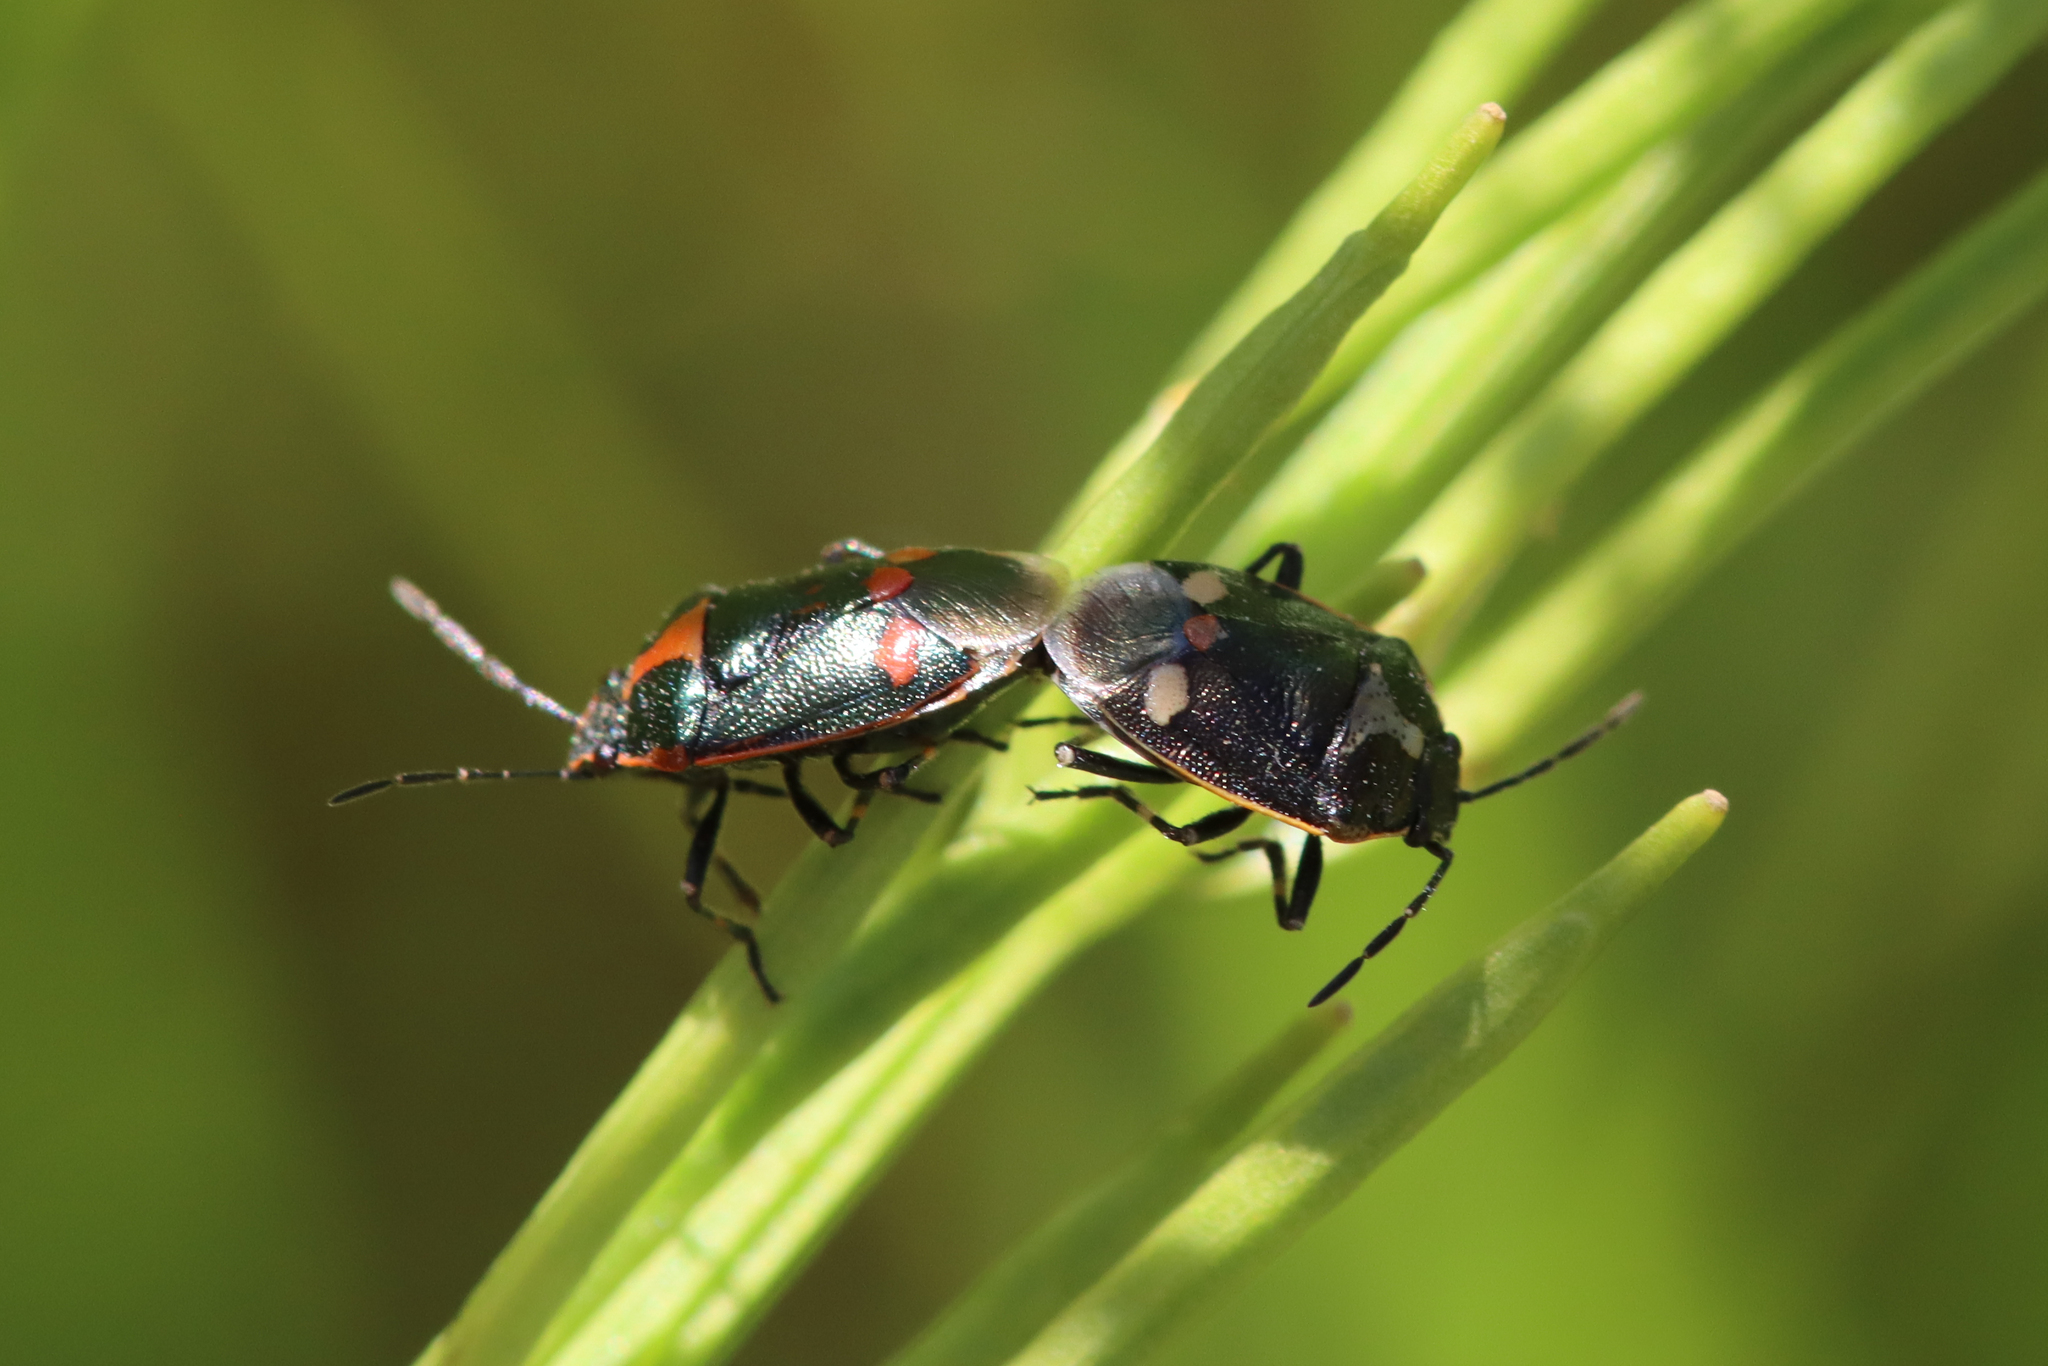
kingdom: Animalia
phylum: Arthropoda
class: Insecta
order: Hemiptera
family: Pentatomidae
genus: Eurydema
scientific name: Eurydema oleracea
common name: Cabbage bug
